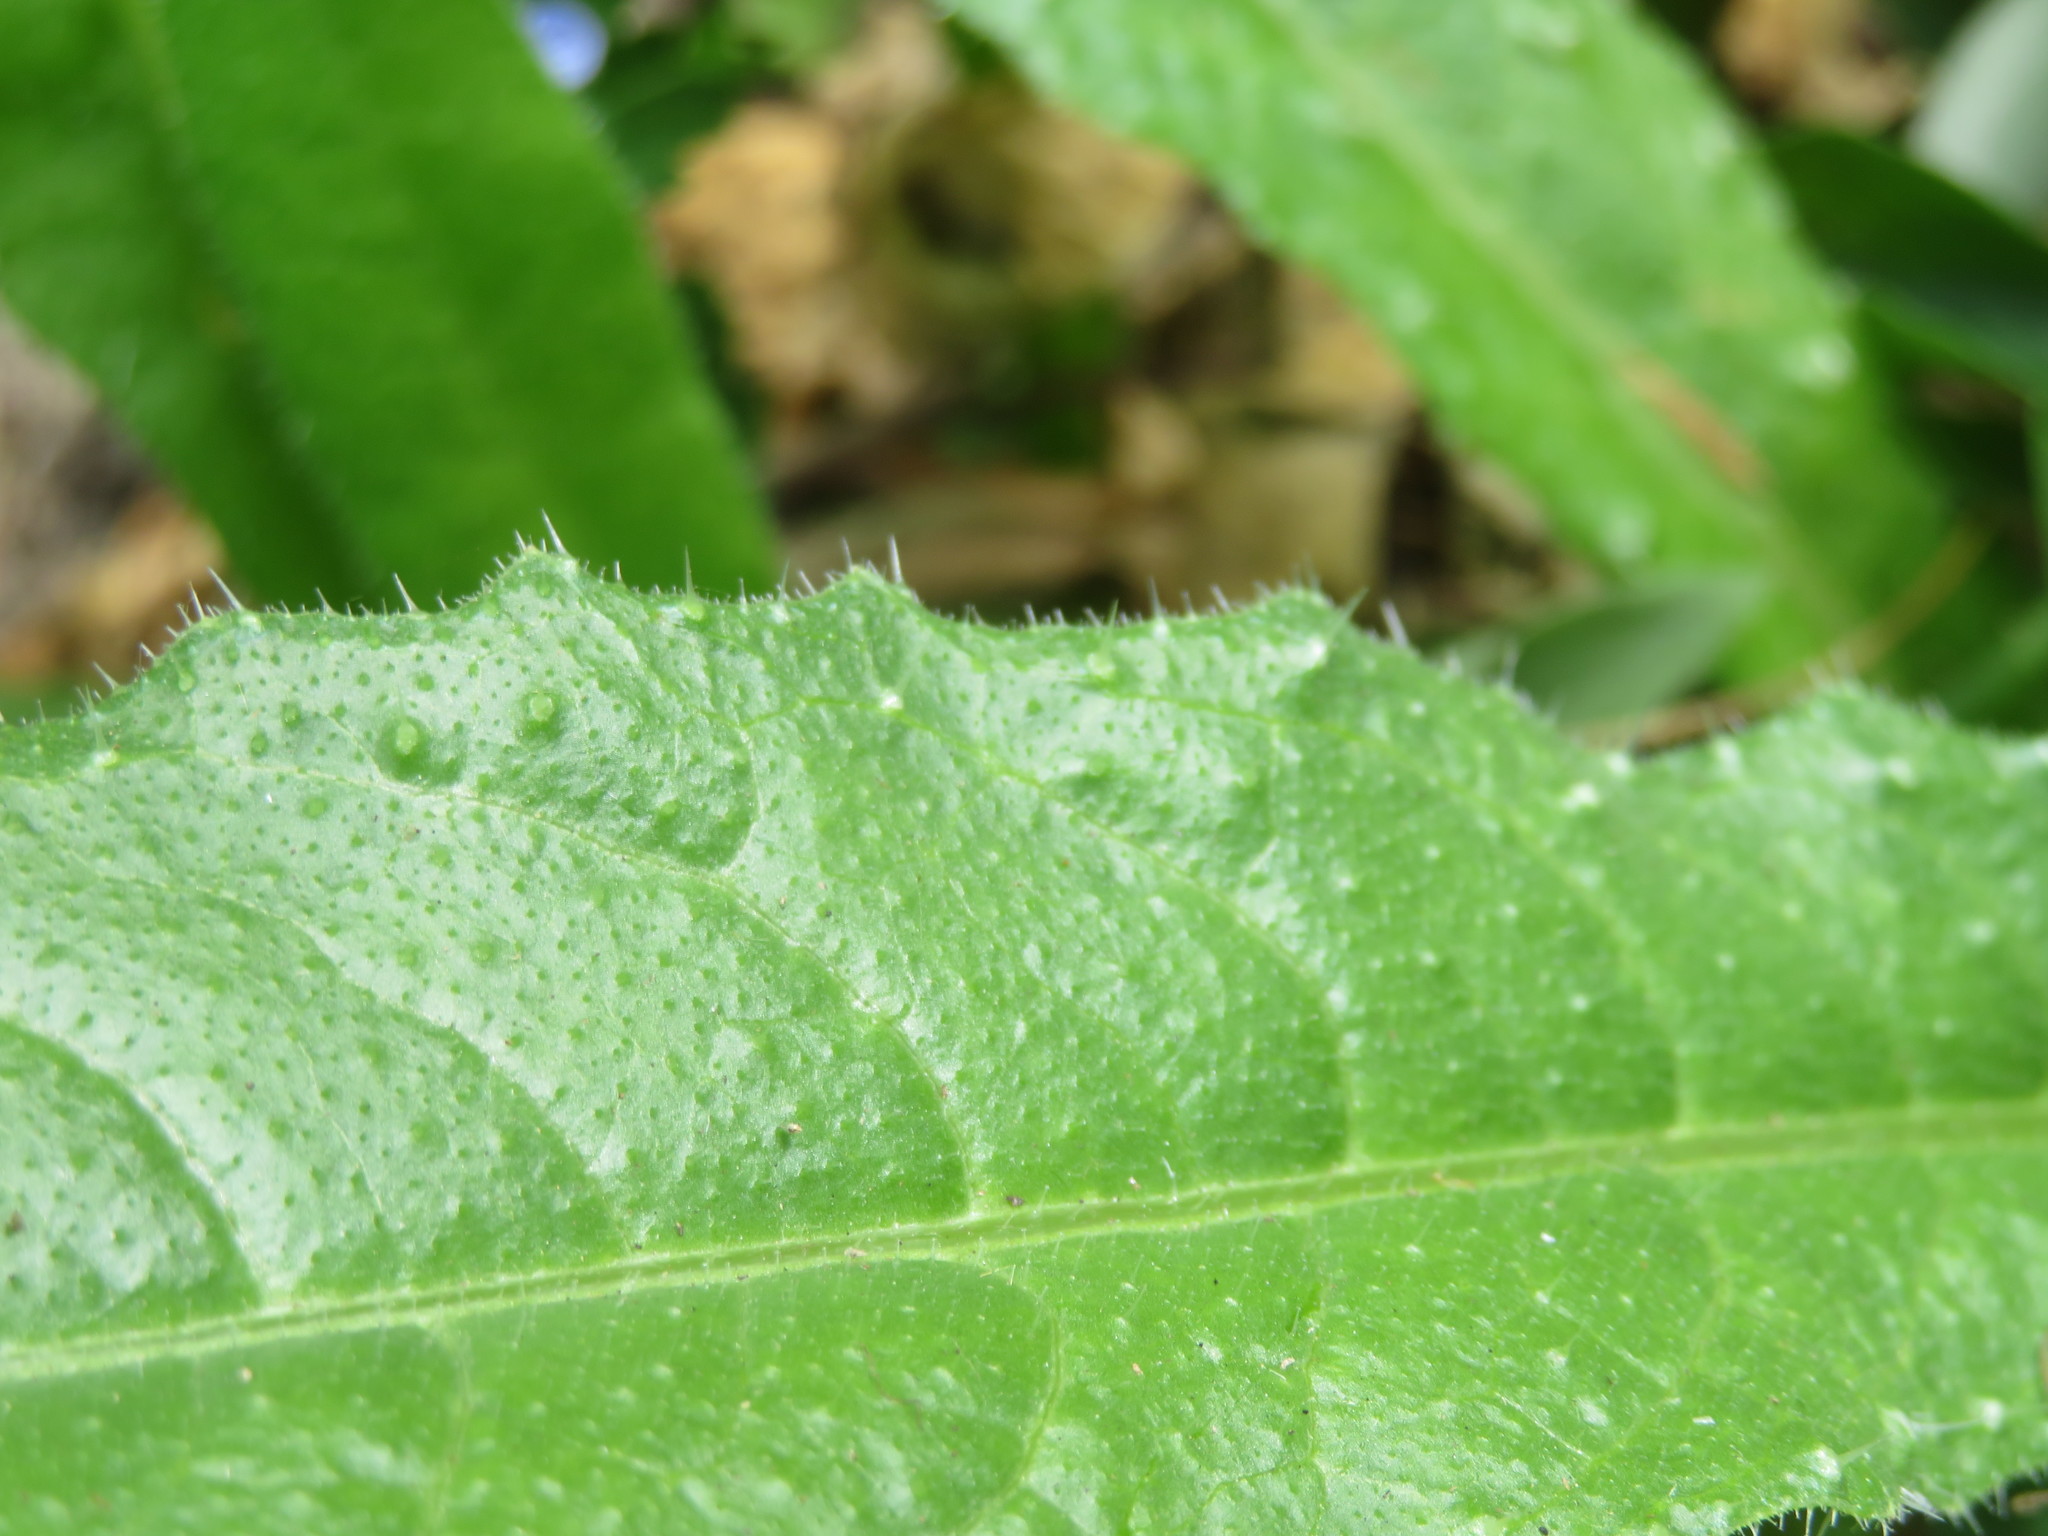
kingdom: Plantae
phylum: Tracheophyta
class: Magnoliopsida
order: Asterales
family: Asteraceae
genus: Helminthotheca
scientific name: Helminthotheca echioides
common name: Ox-tongue
